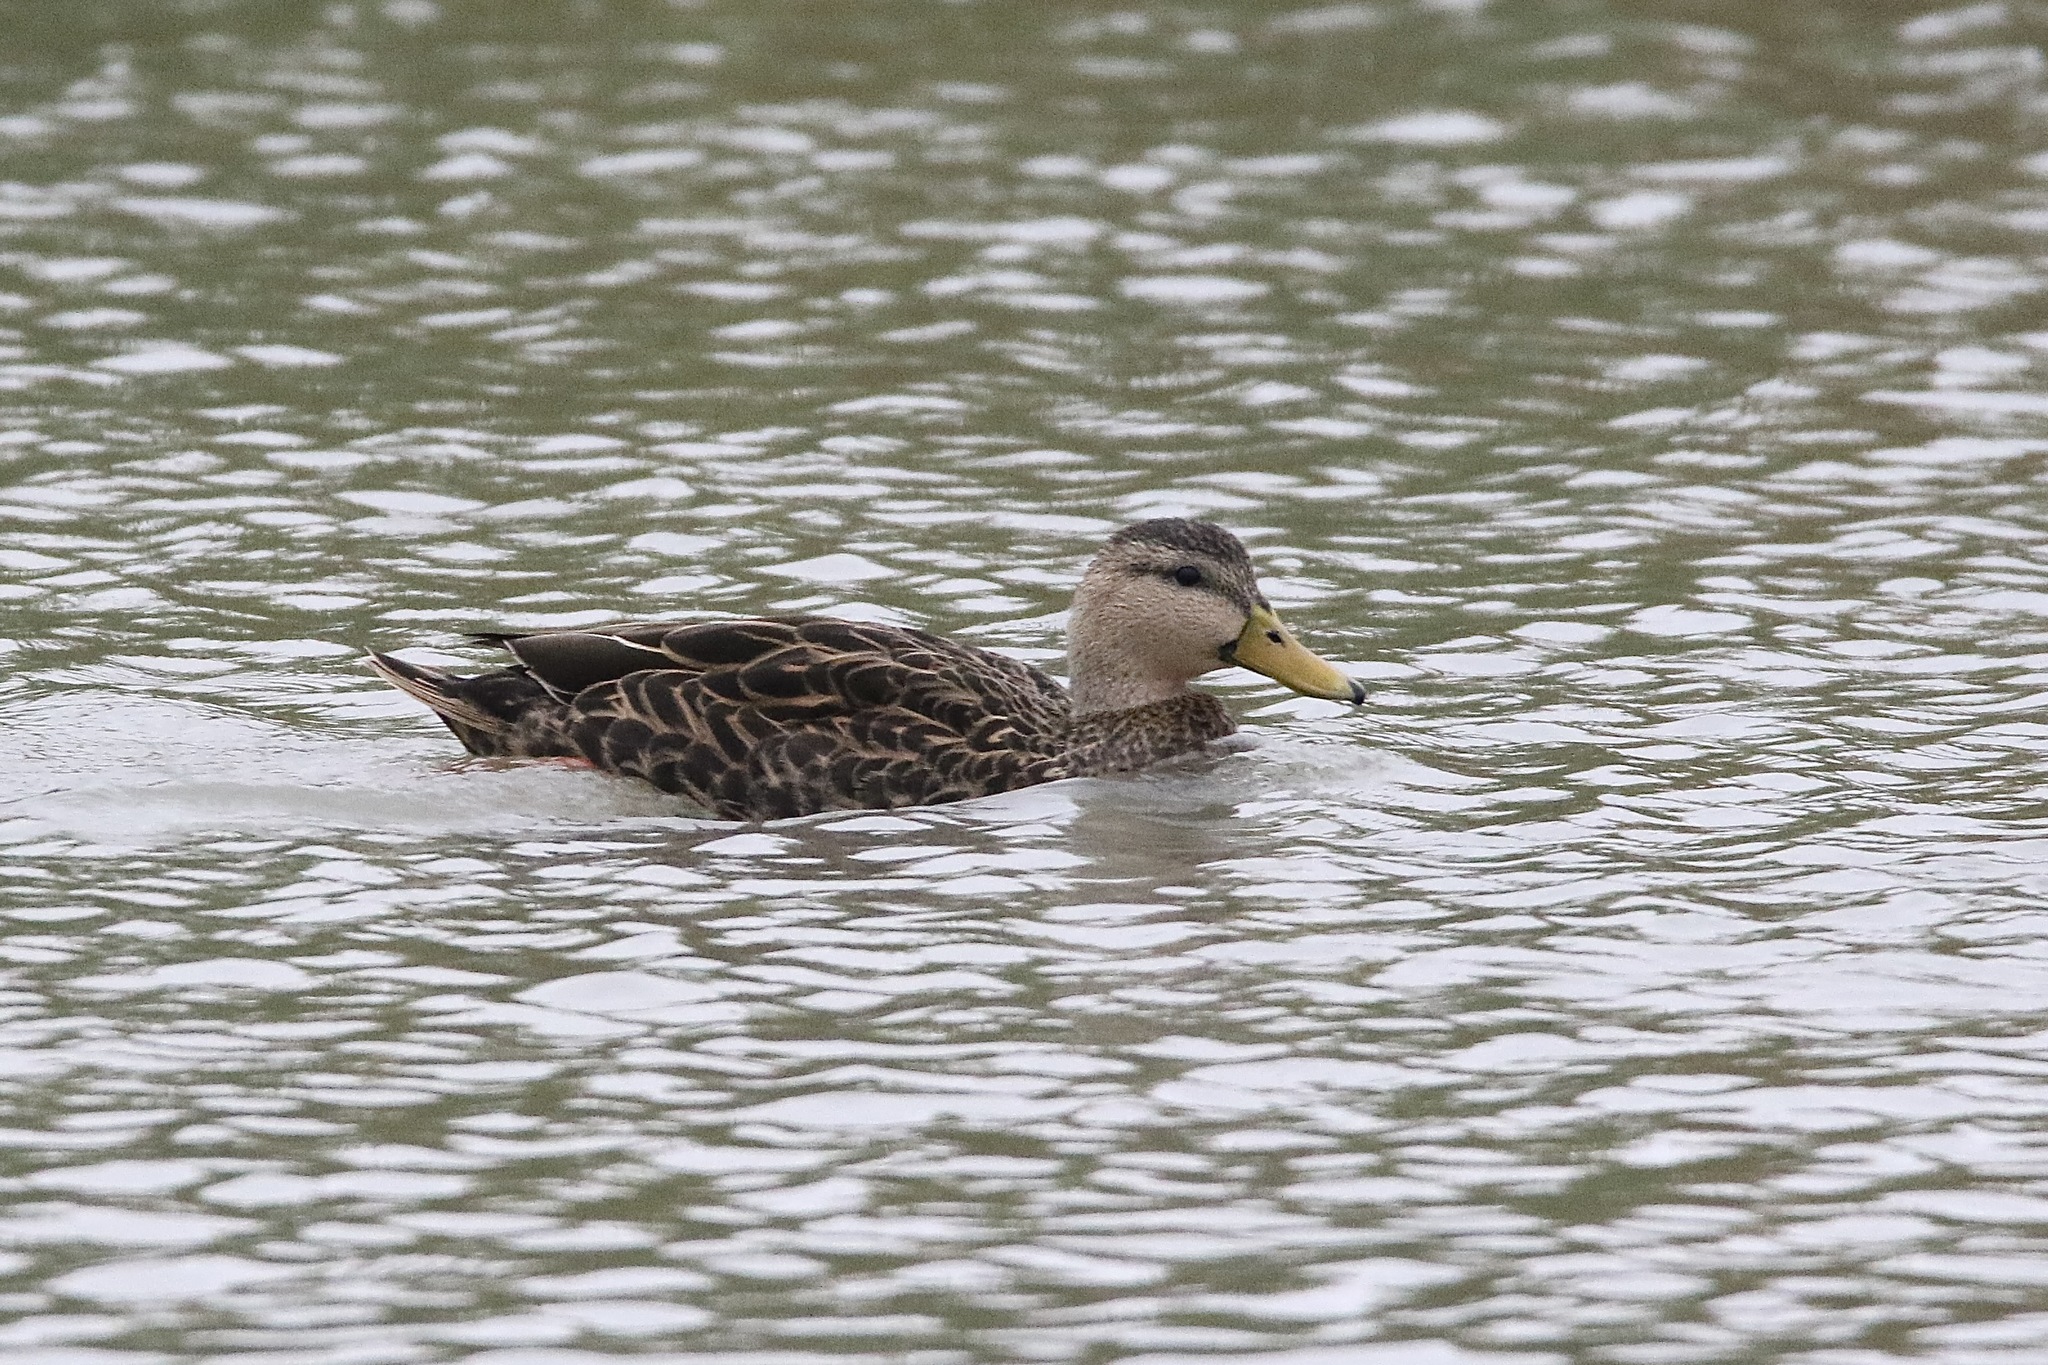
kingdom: Animalia
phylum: Chordata
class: Aves
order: Anseriformes
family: Anatidae
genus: Anas
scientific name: Anas fulvigula
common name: Mottled duck
